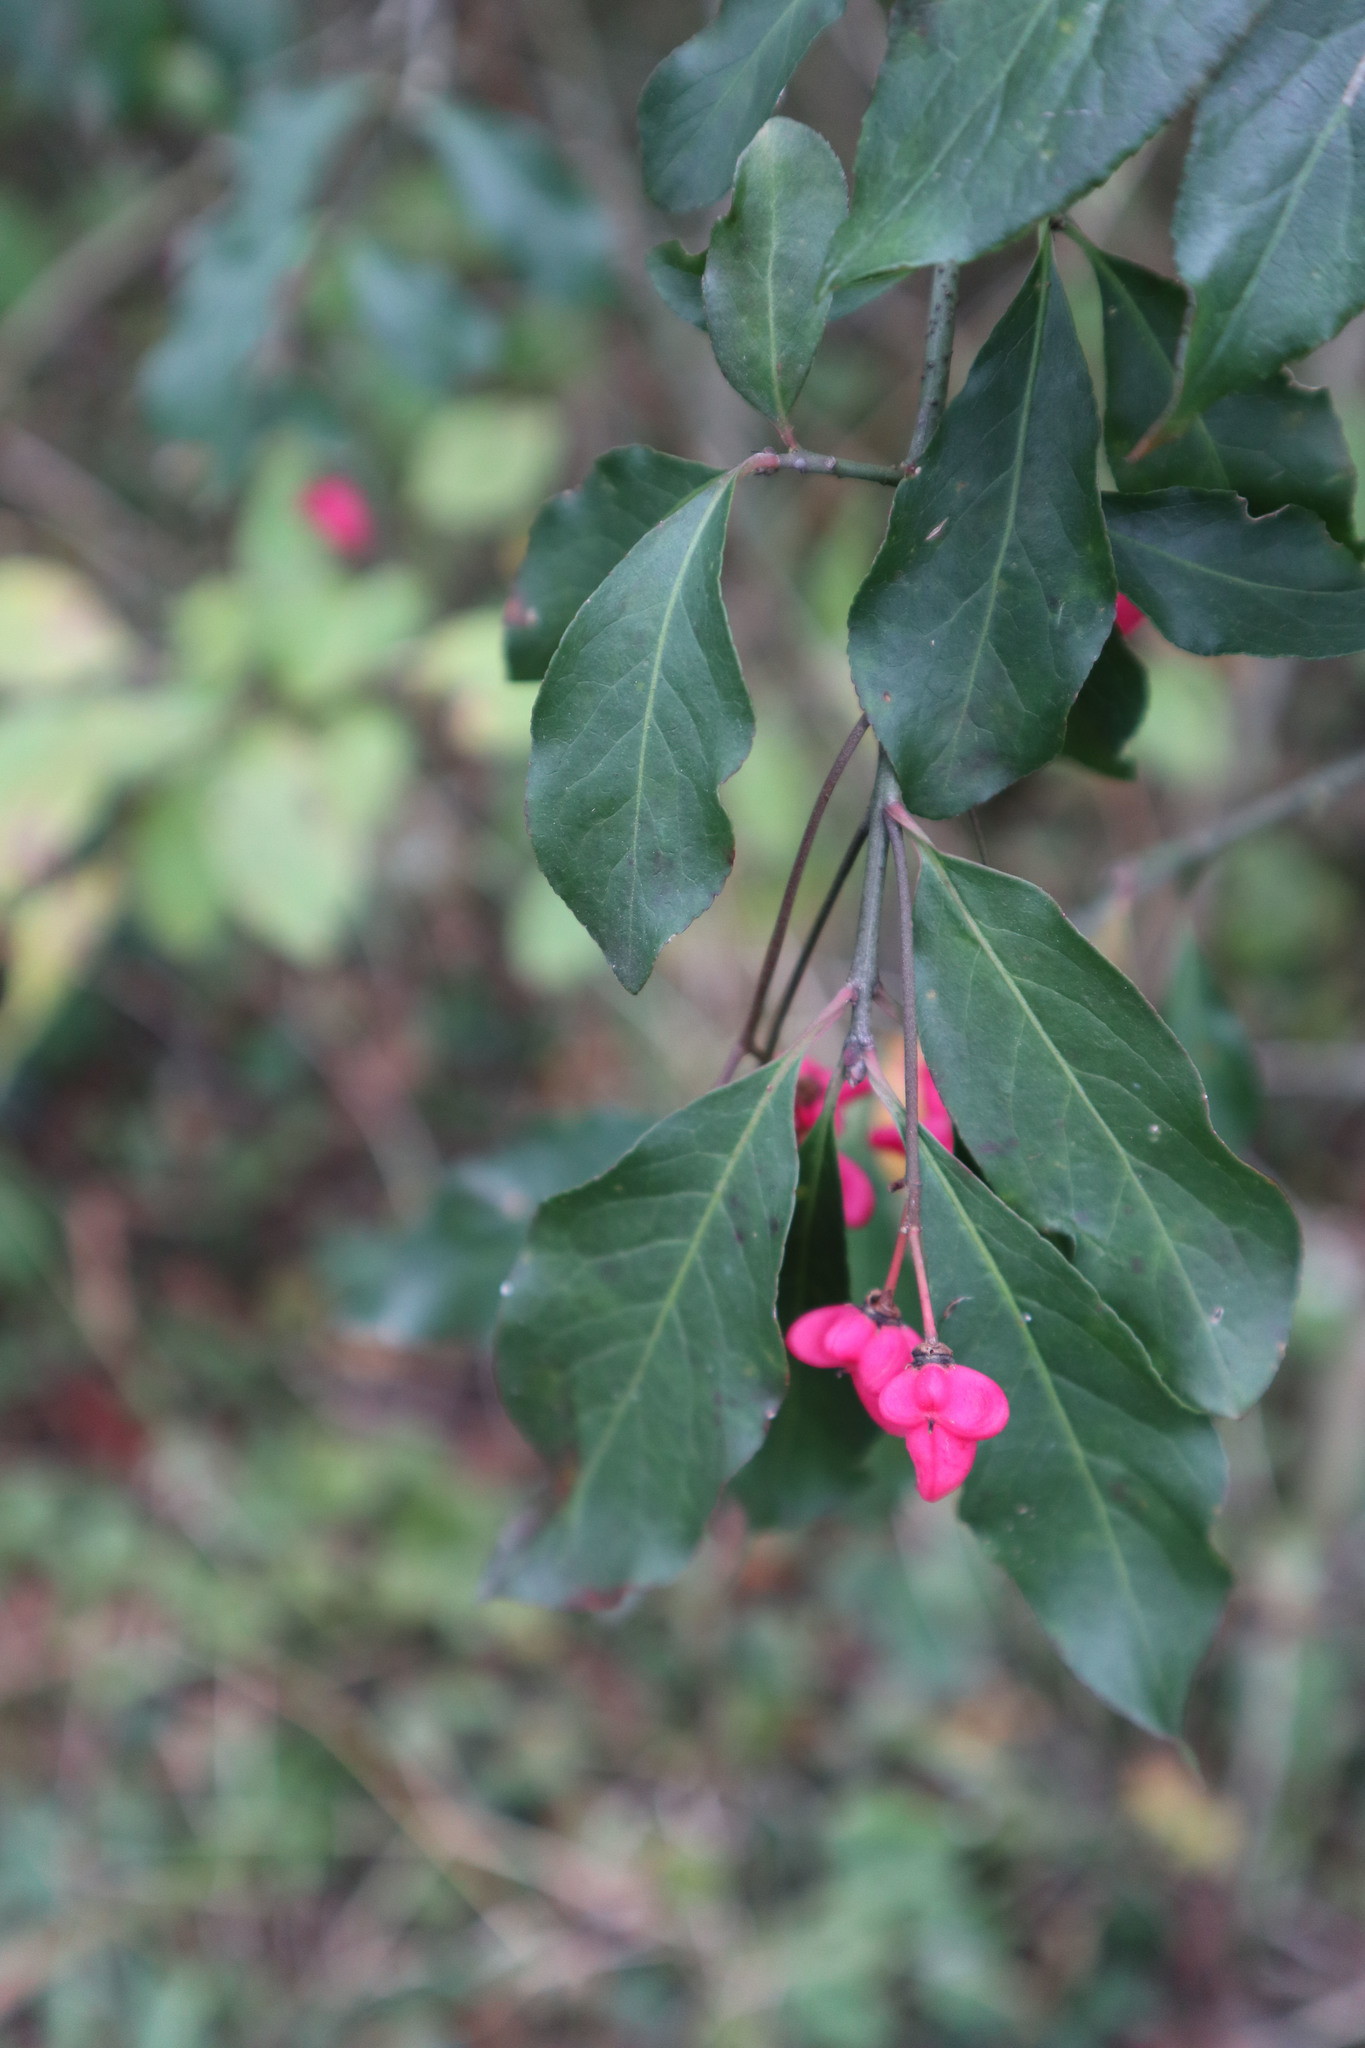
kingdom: Plantae
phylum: Tracheophyta
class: Magnoliopsida
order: Celastrales
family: Celastraceae
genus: Euonymus
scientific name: Euonymus europaeus
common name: Spindle
